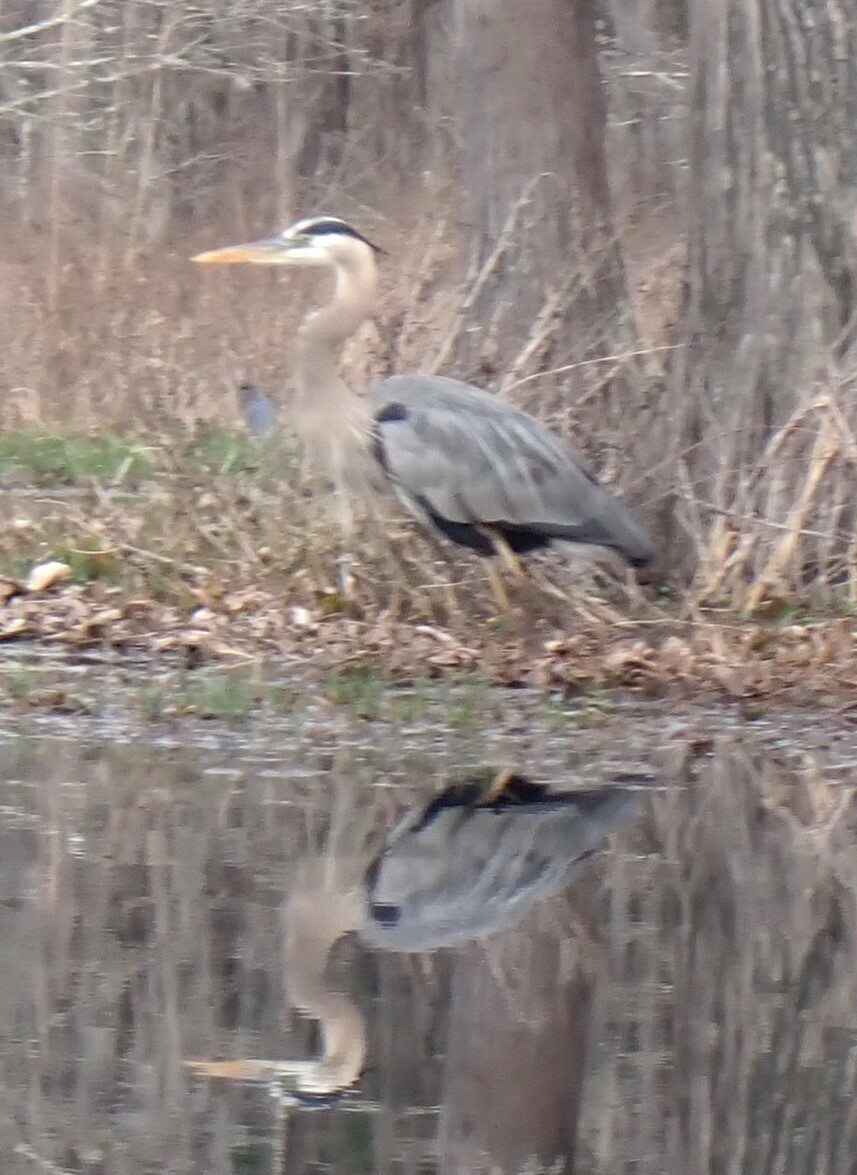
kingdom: Animalia
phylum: Chordata
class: Aves
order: Pelecaniformes
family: Ardeidae
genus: Ardea
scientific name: Ardea herodias
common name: Great blue heron
